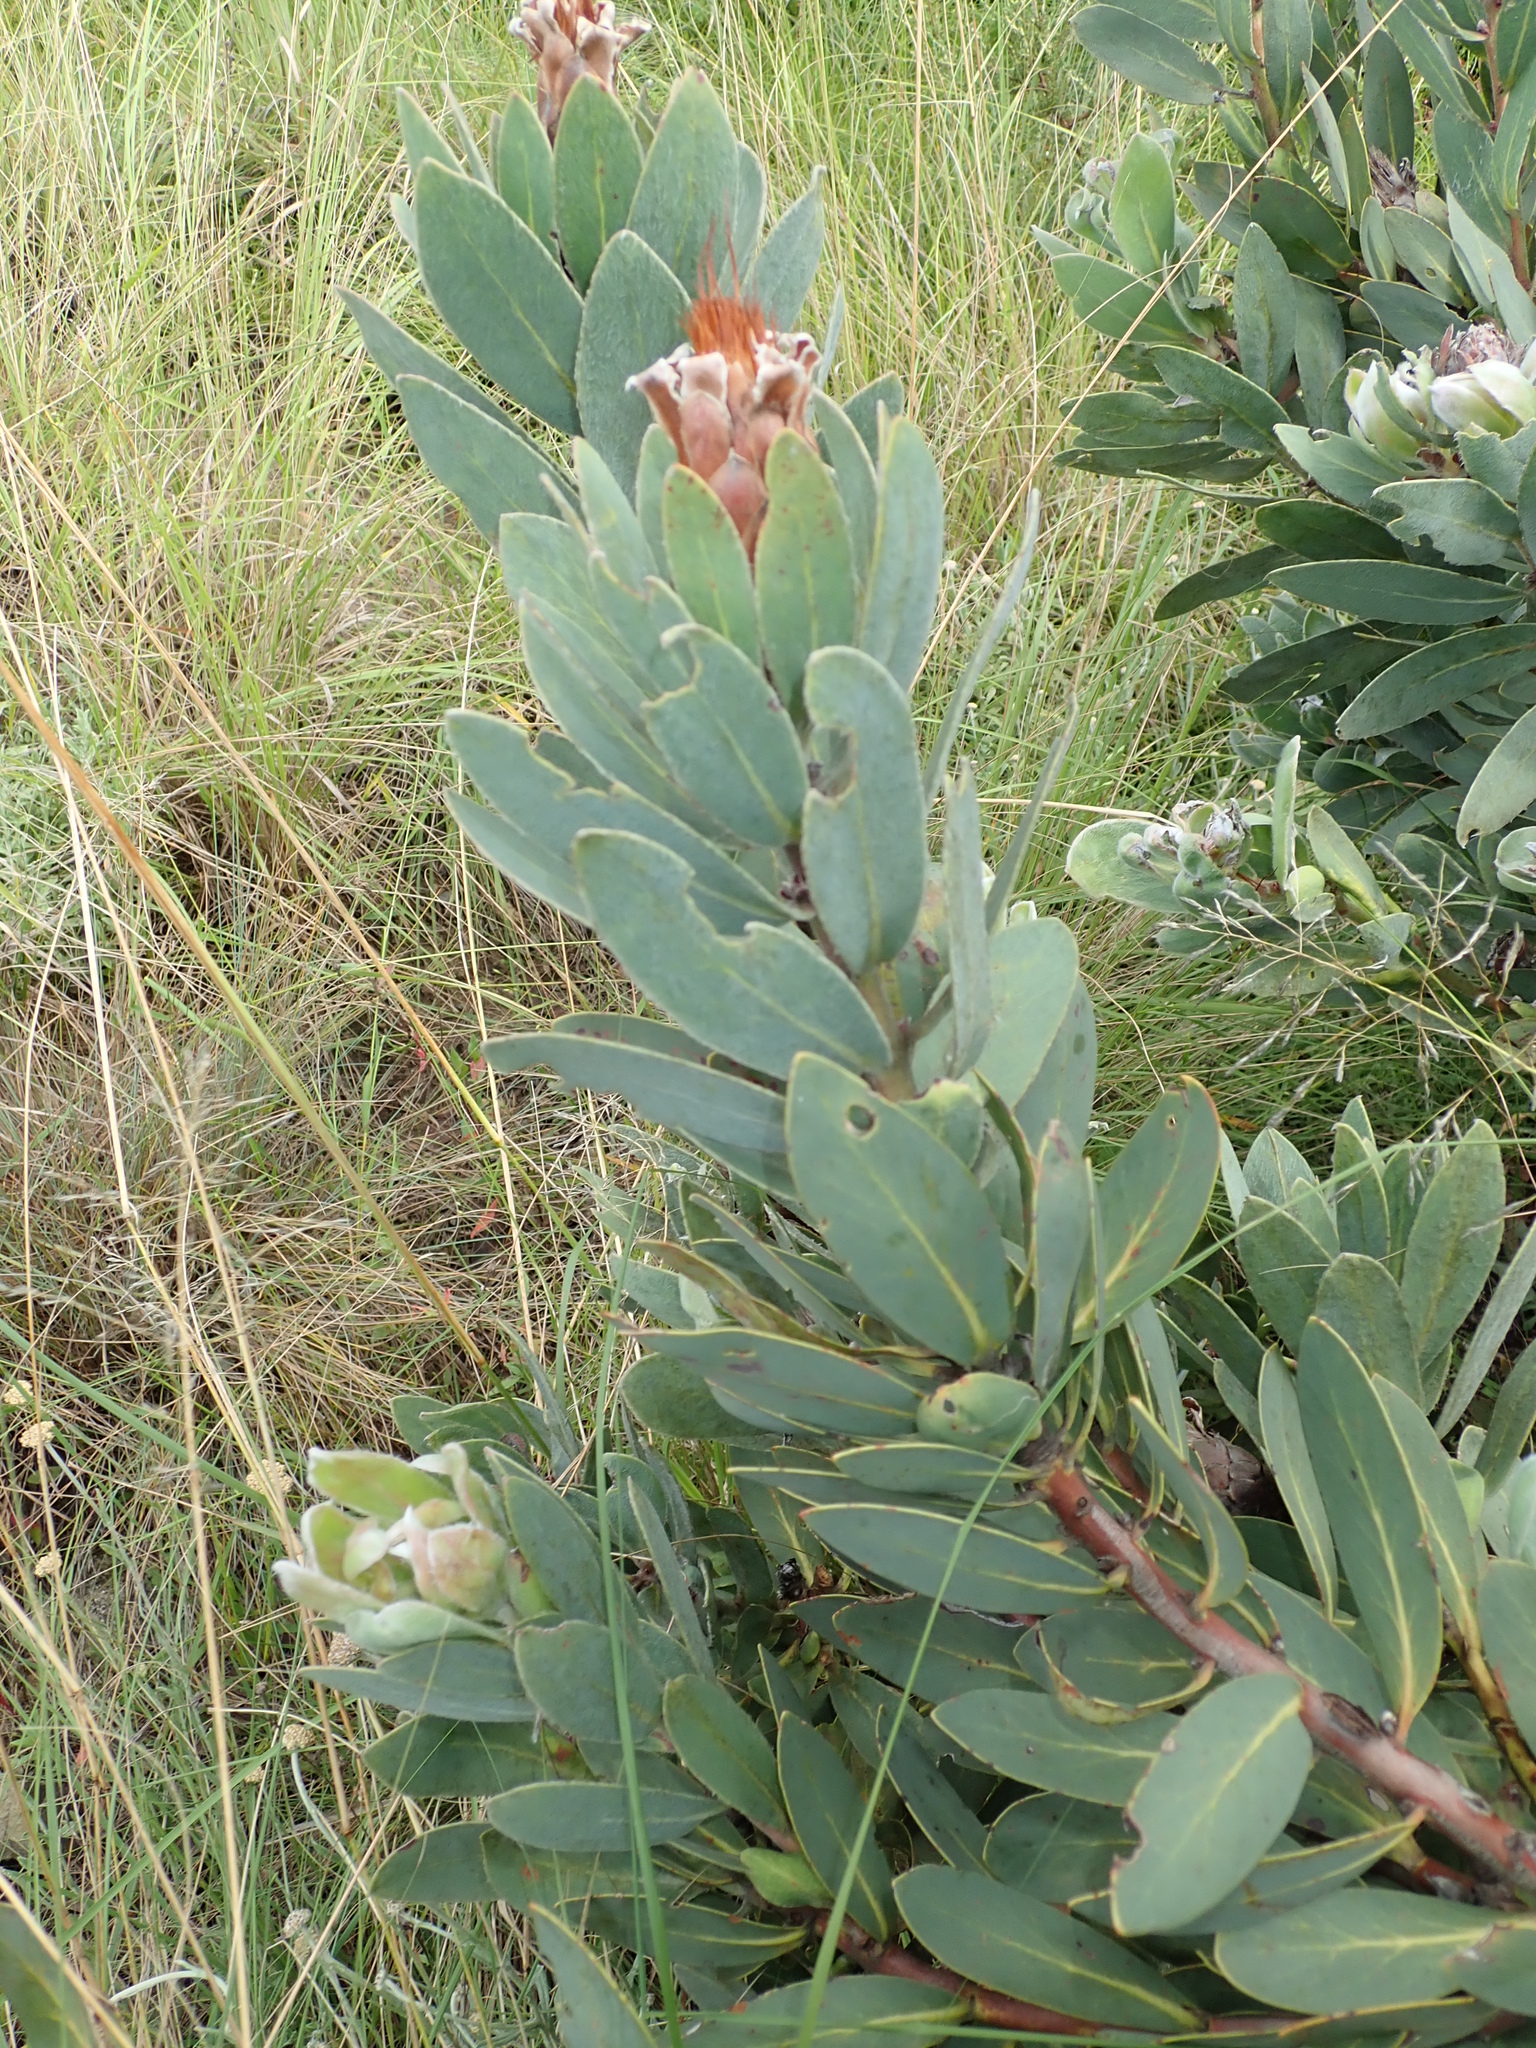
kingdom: Plantae
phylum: Tracheophyta
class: Magnoliopsida
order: Proteales
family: Proteaceae
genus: Protea
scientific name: Protea subvestita
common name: Lip-flower sugarbush
